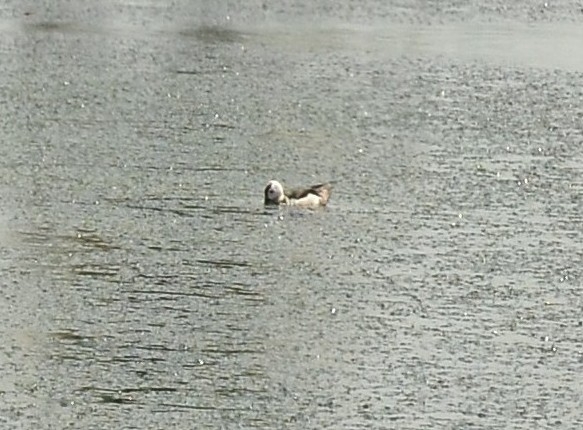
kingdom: Animalia
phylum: Chordata
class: Aves
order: Anseriformes
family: Anatidae
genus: Nettapus
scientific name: Nettapus coromandelianus
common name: Cotton pygmy-goose
